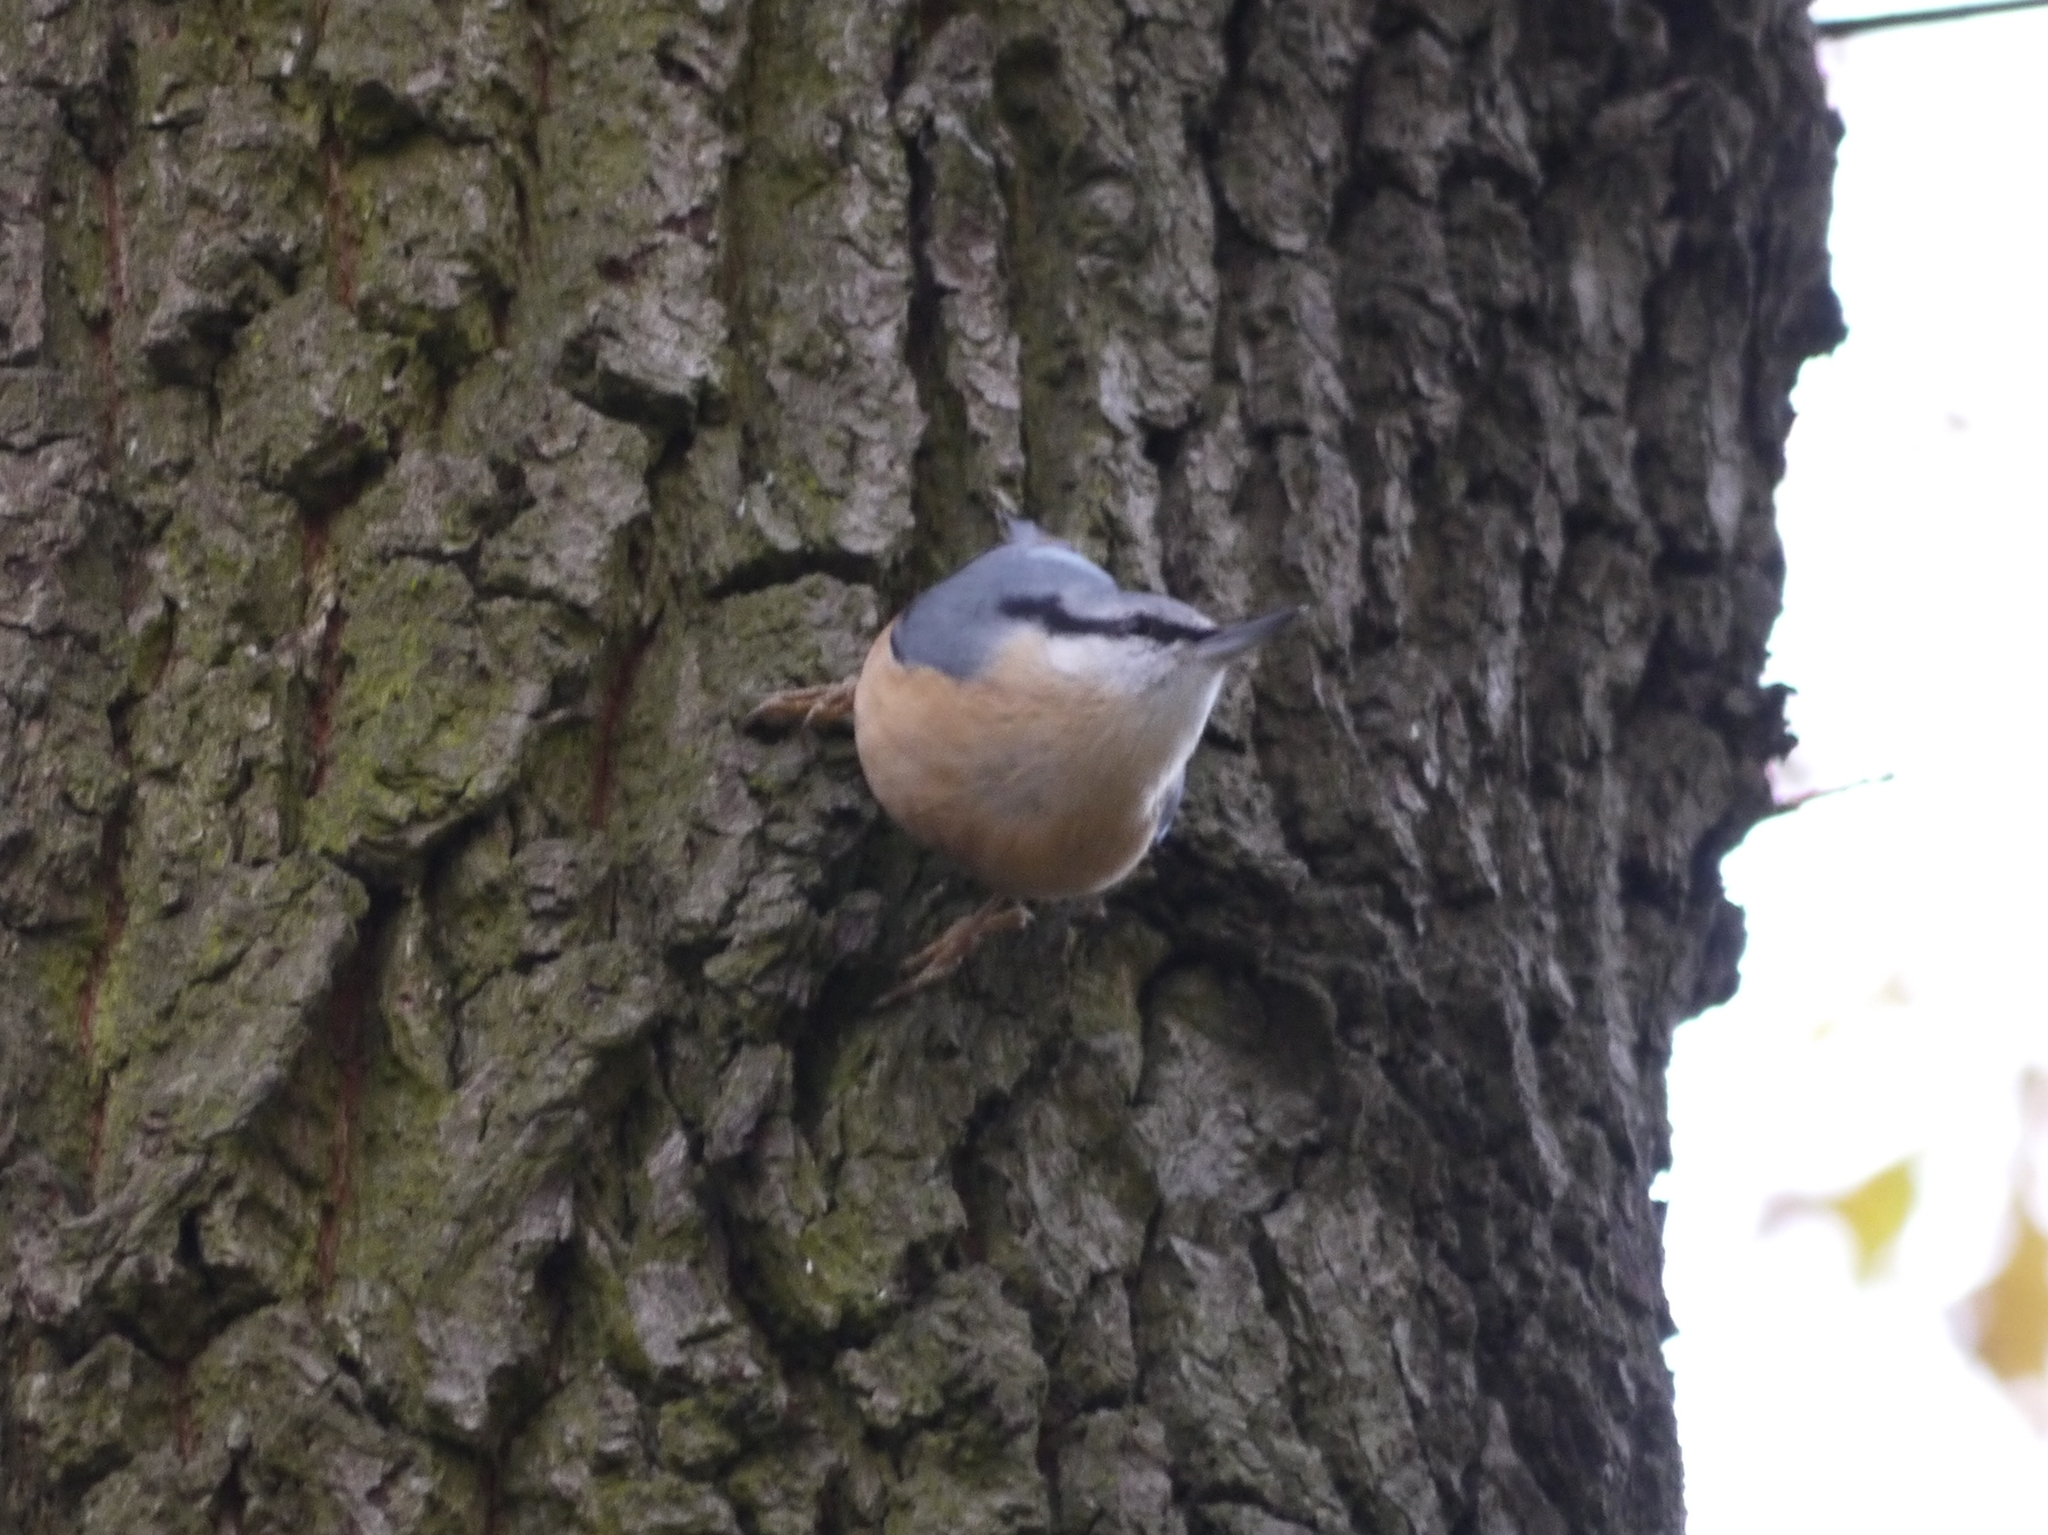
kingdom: Animalia
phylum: Chordata
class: Aves
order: Passeriformes
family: Sittidae
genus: Sitta
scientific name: Sitta europaea
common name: Eurasian nuthatch
